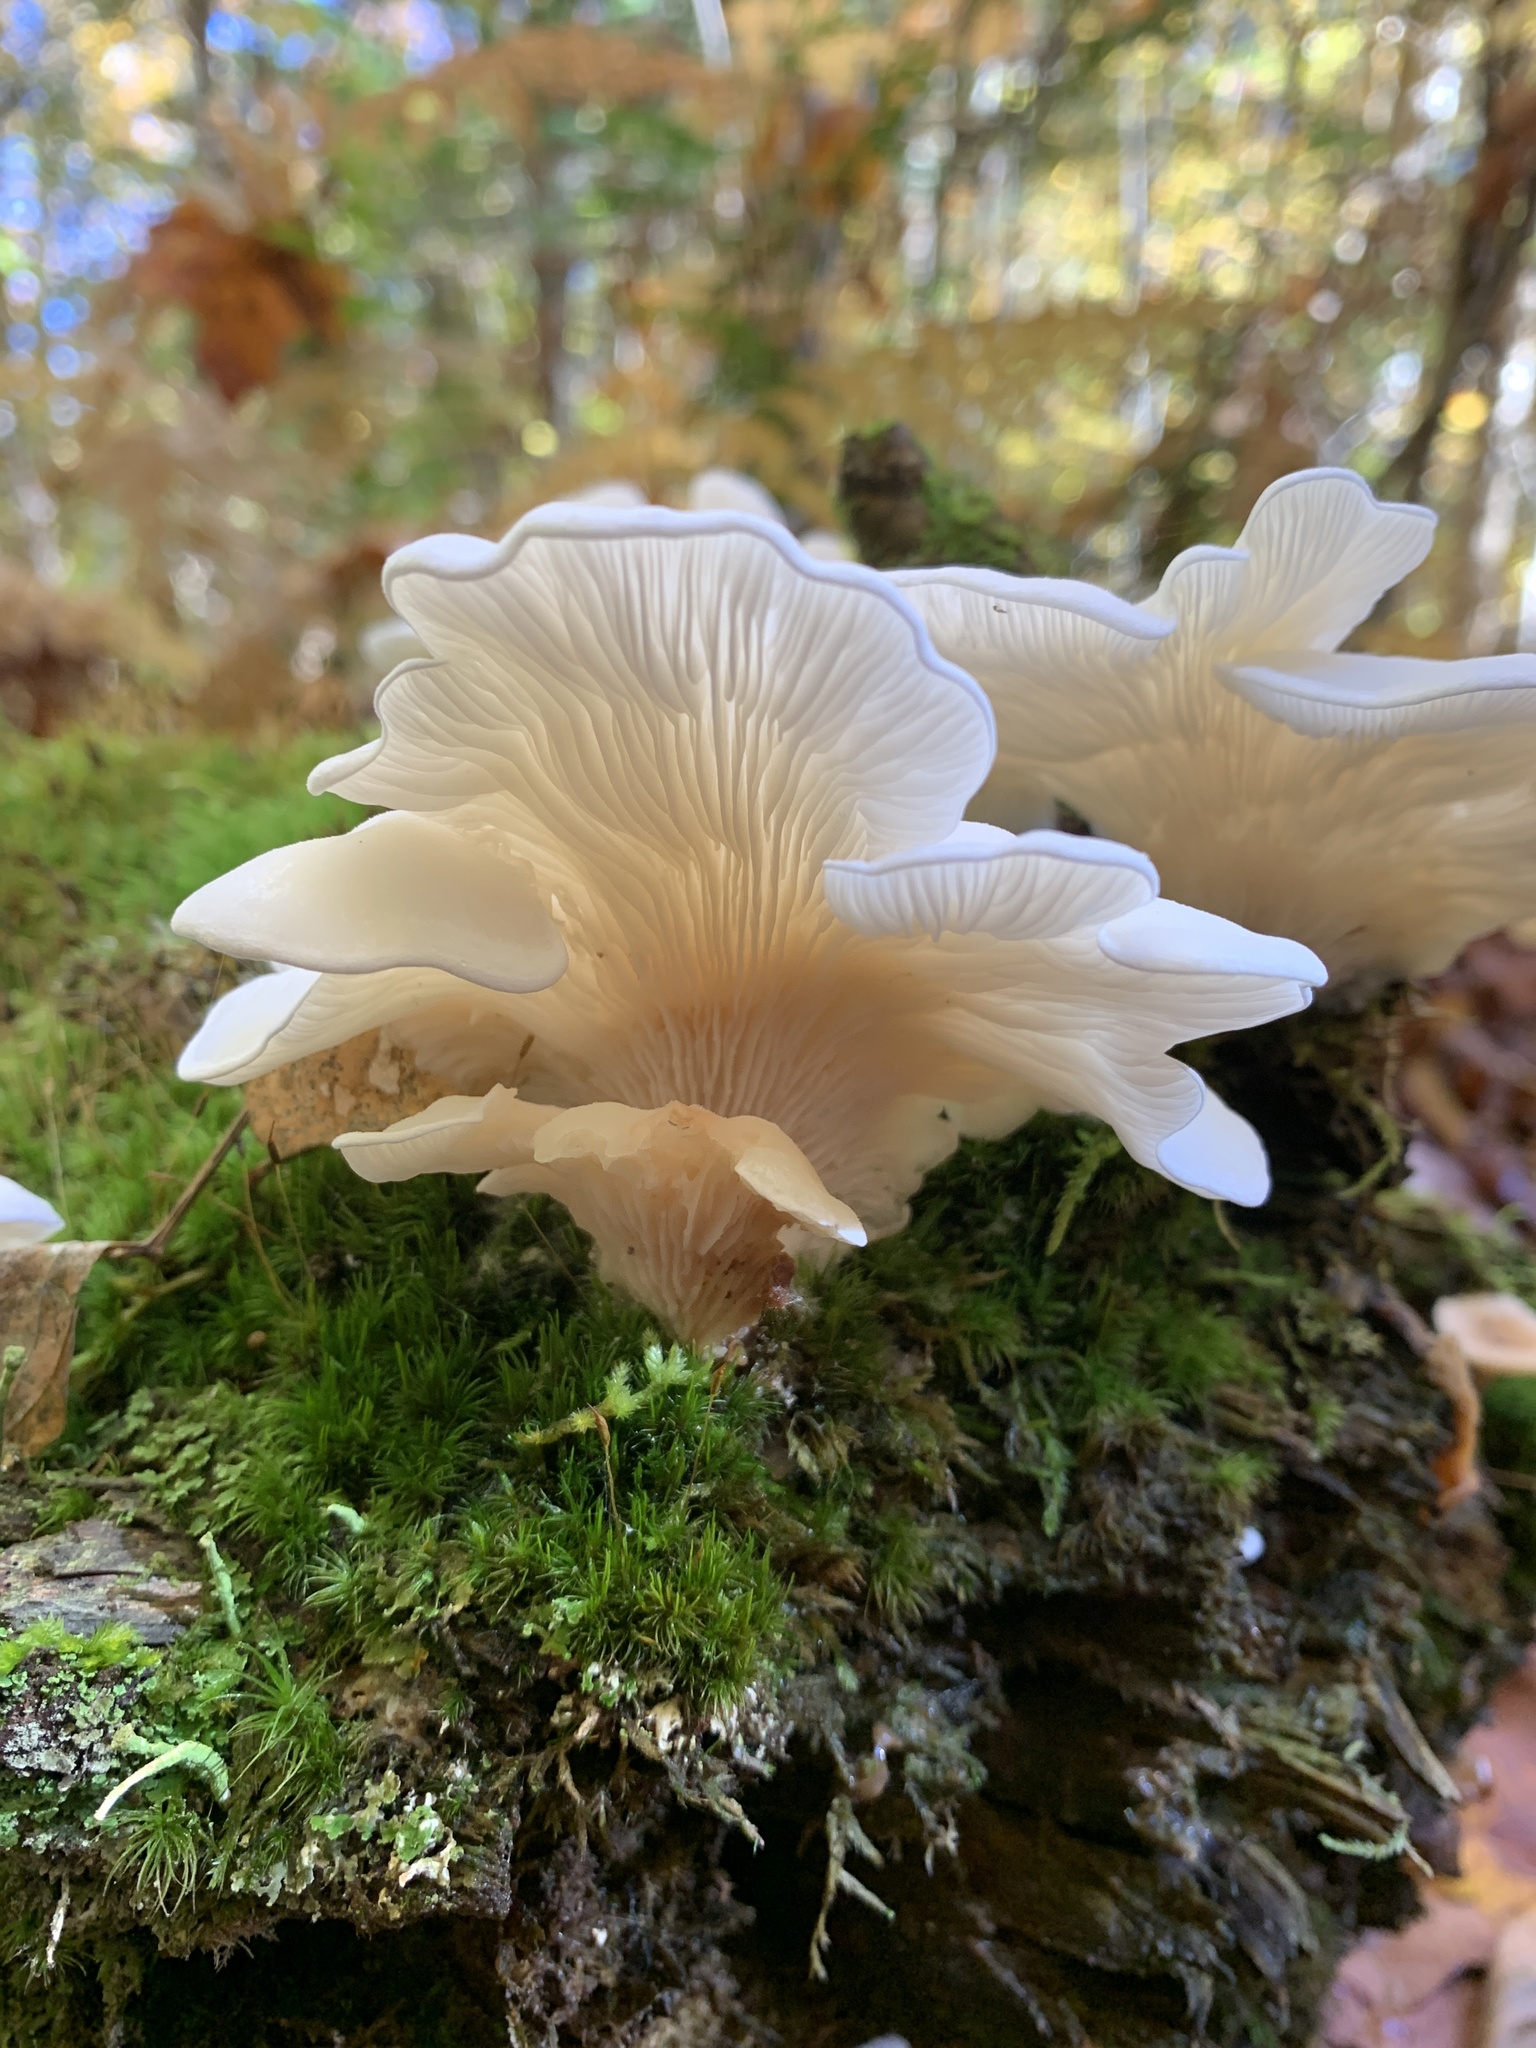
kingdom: Fungi
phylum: Basidiomycota
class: Agaricomycetes
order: Agaricales
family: Marasmiaceae
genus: Pleurocybella
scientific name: Pleurocybella porrigens
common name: Angel's wings
